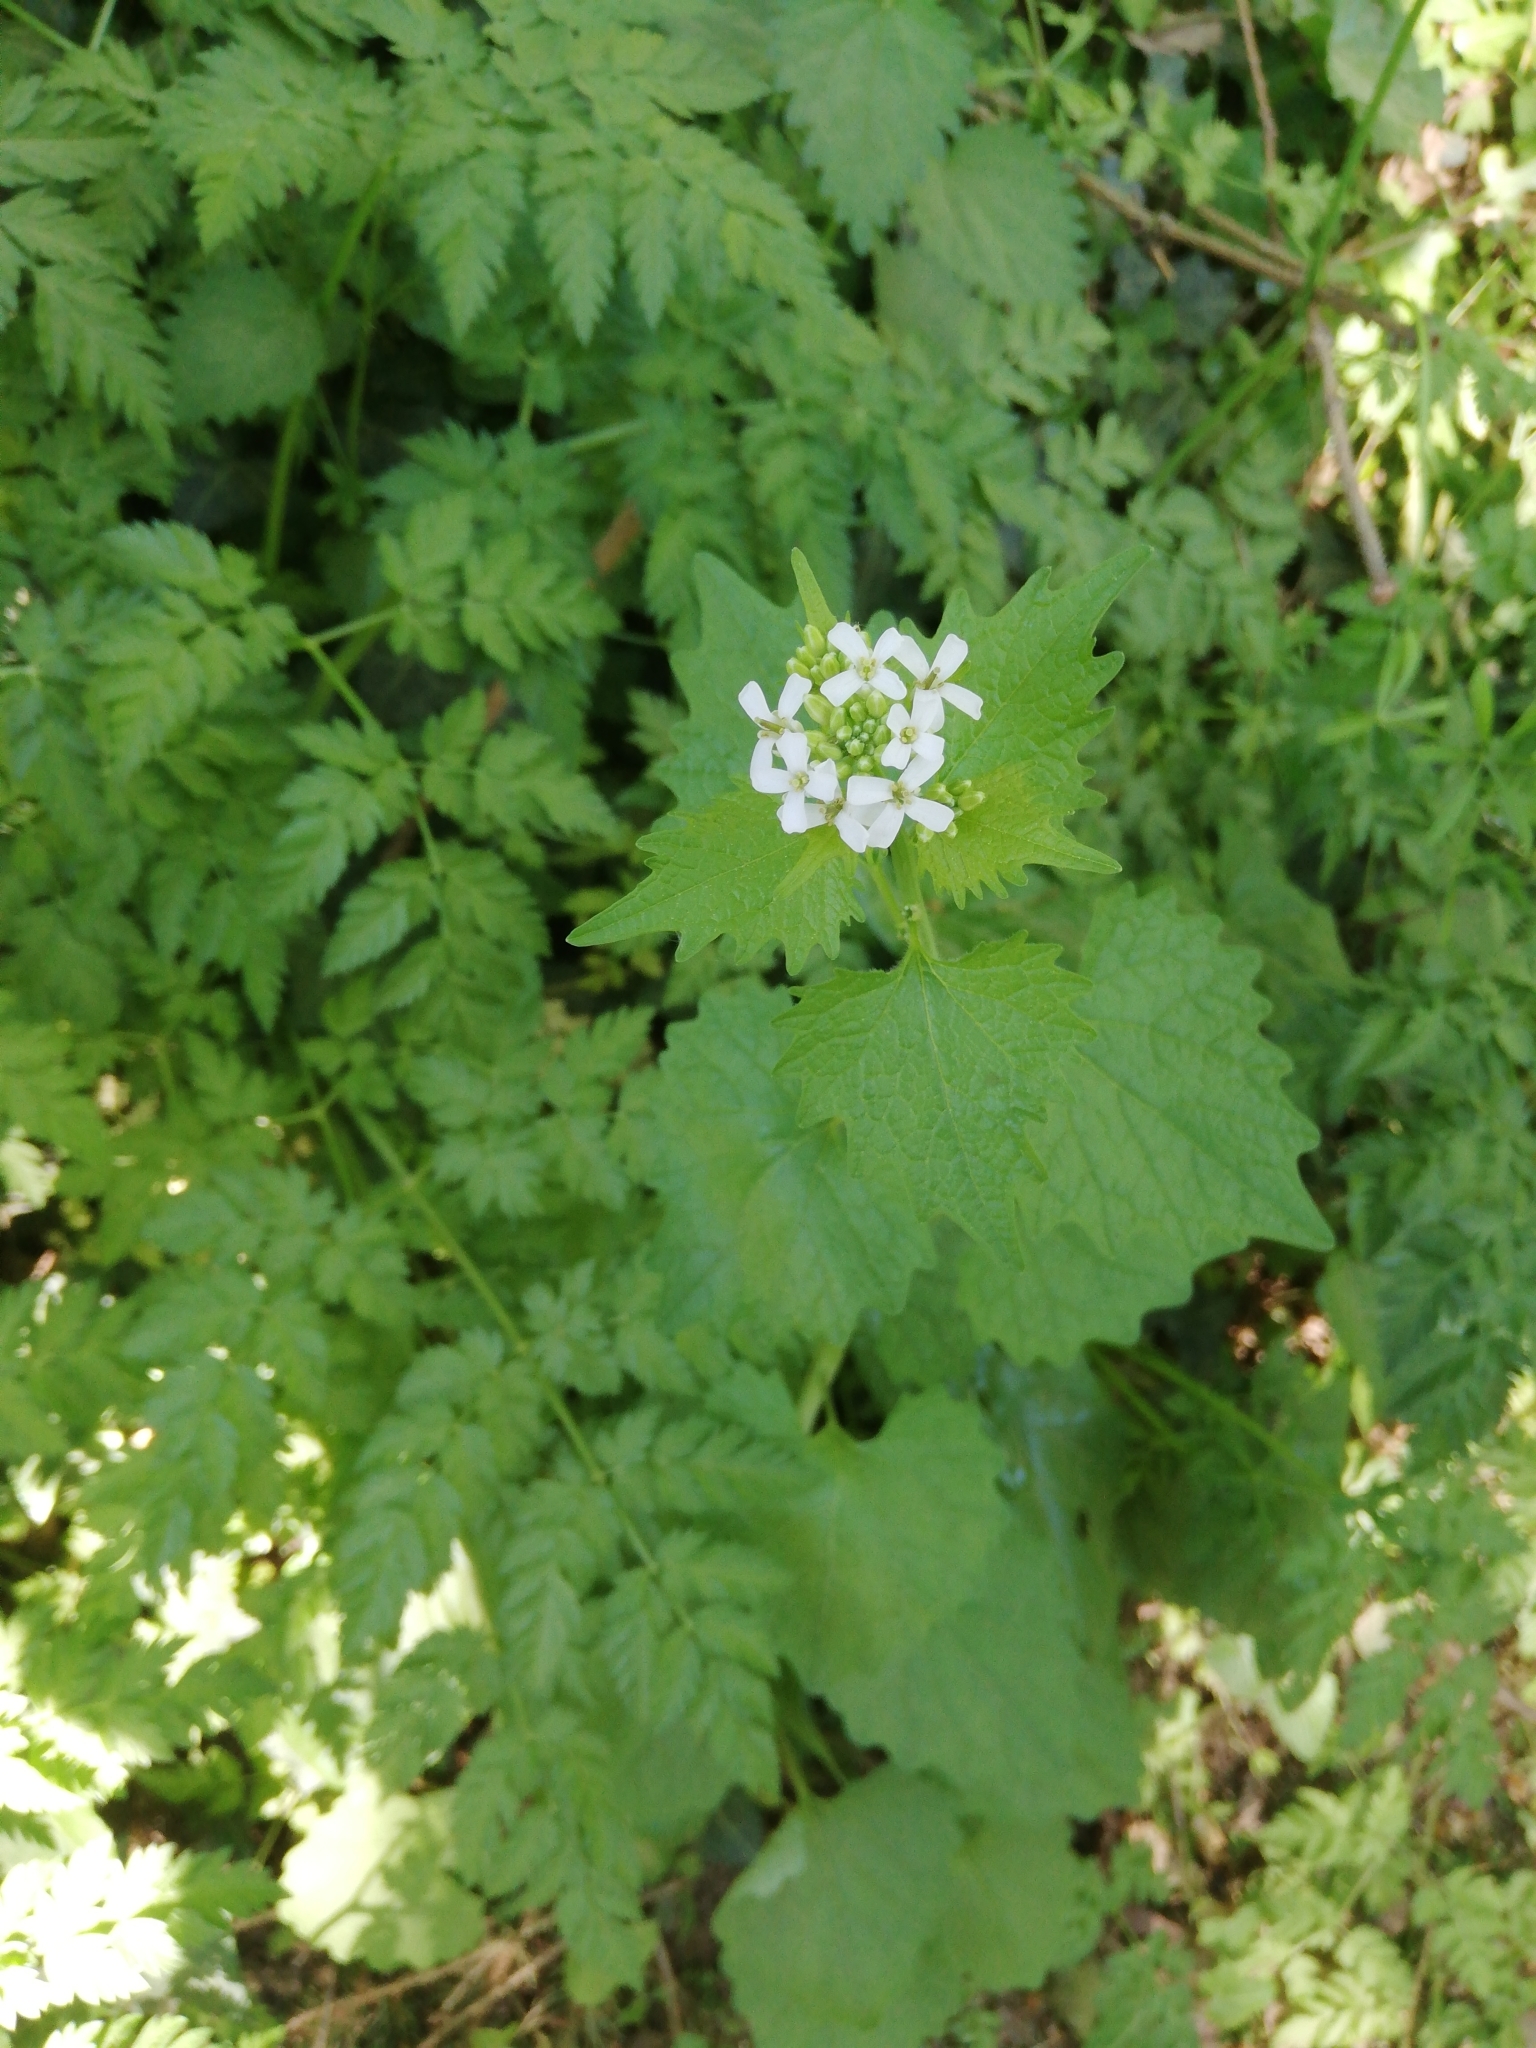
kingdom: Plantae
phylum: Tracheophyta
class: Magnoliopsida
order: Brassicales
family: Brassicaceae
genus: Alliaria
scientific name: Alliaria petiolata
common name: Garlic mustard
